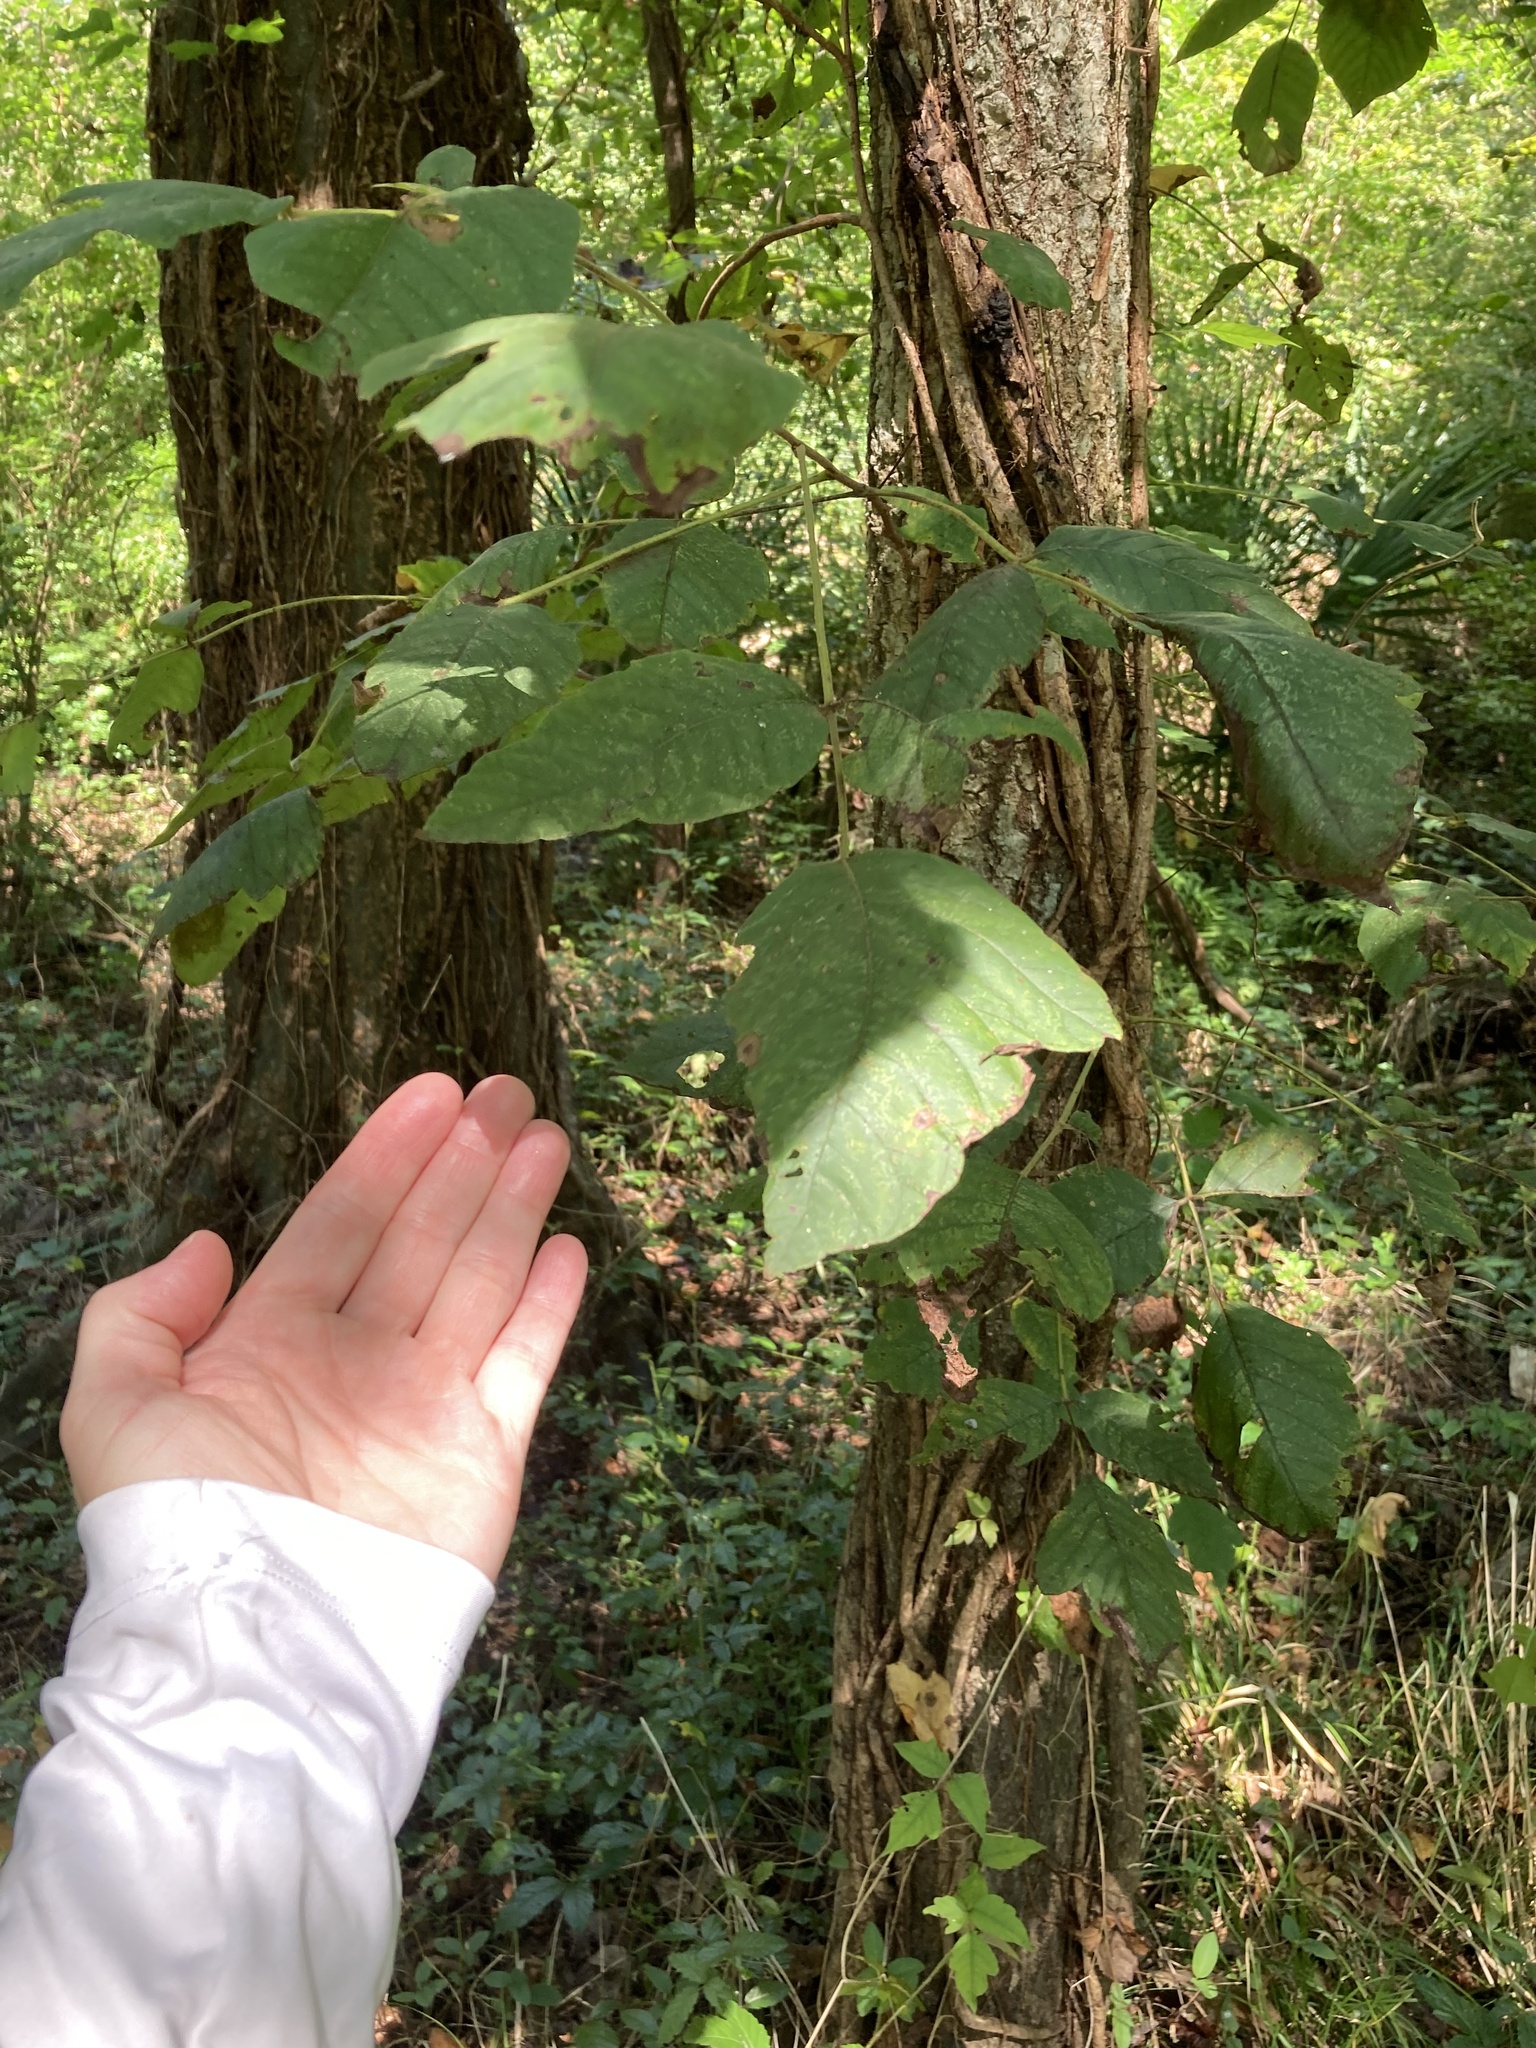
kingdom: Plantae
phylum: Tracheophyta
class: Magnoliopsida
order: Sapindales
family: Anacardiaceae
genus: Toxicodendron
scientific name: Toxicodendron radicans
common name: Poison ivy
